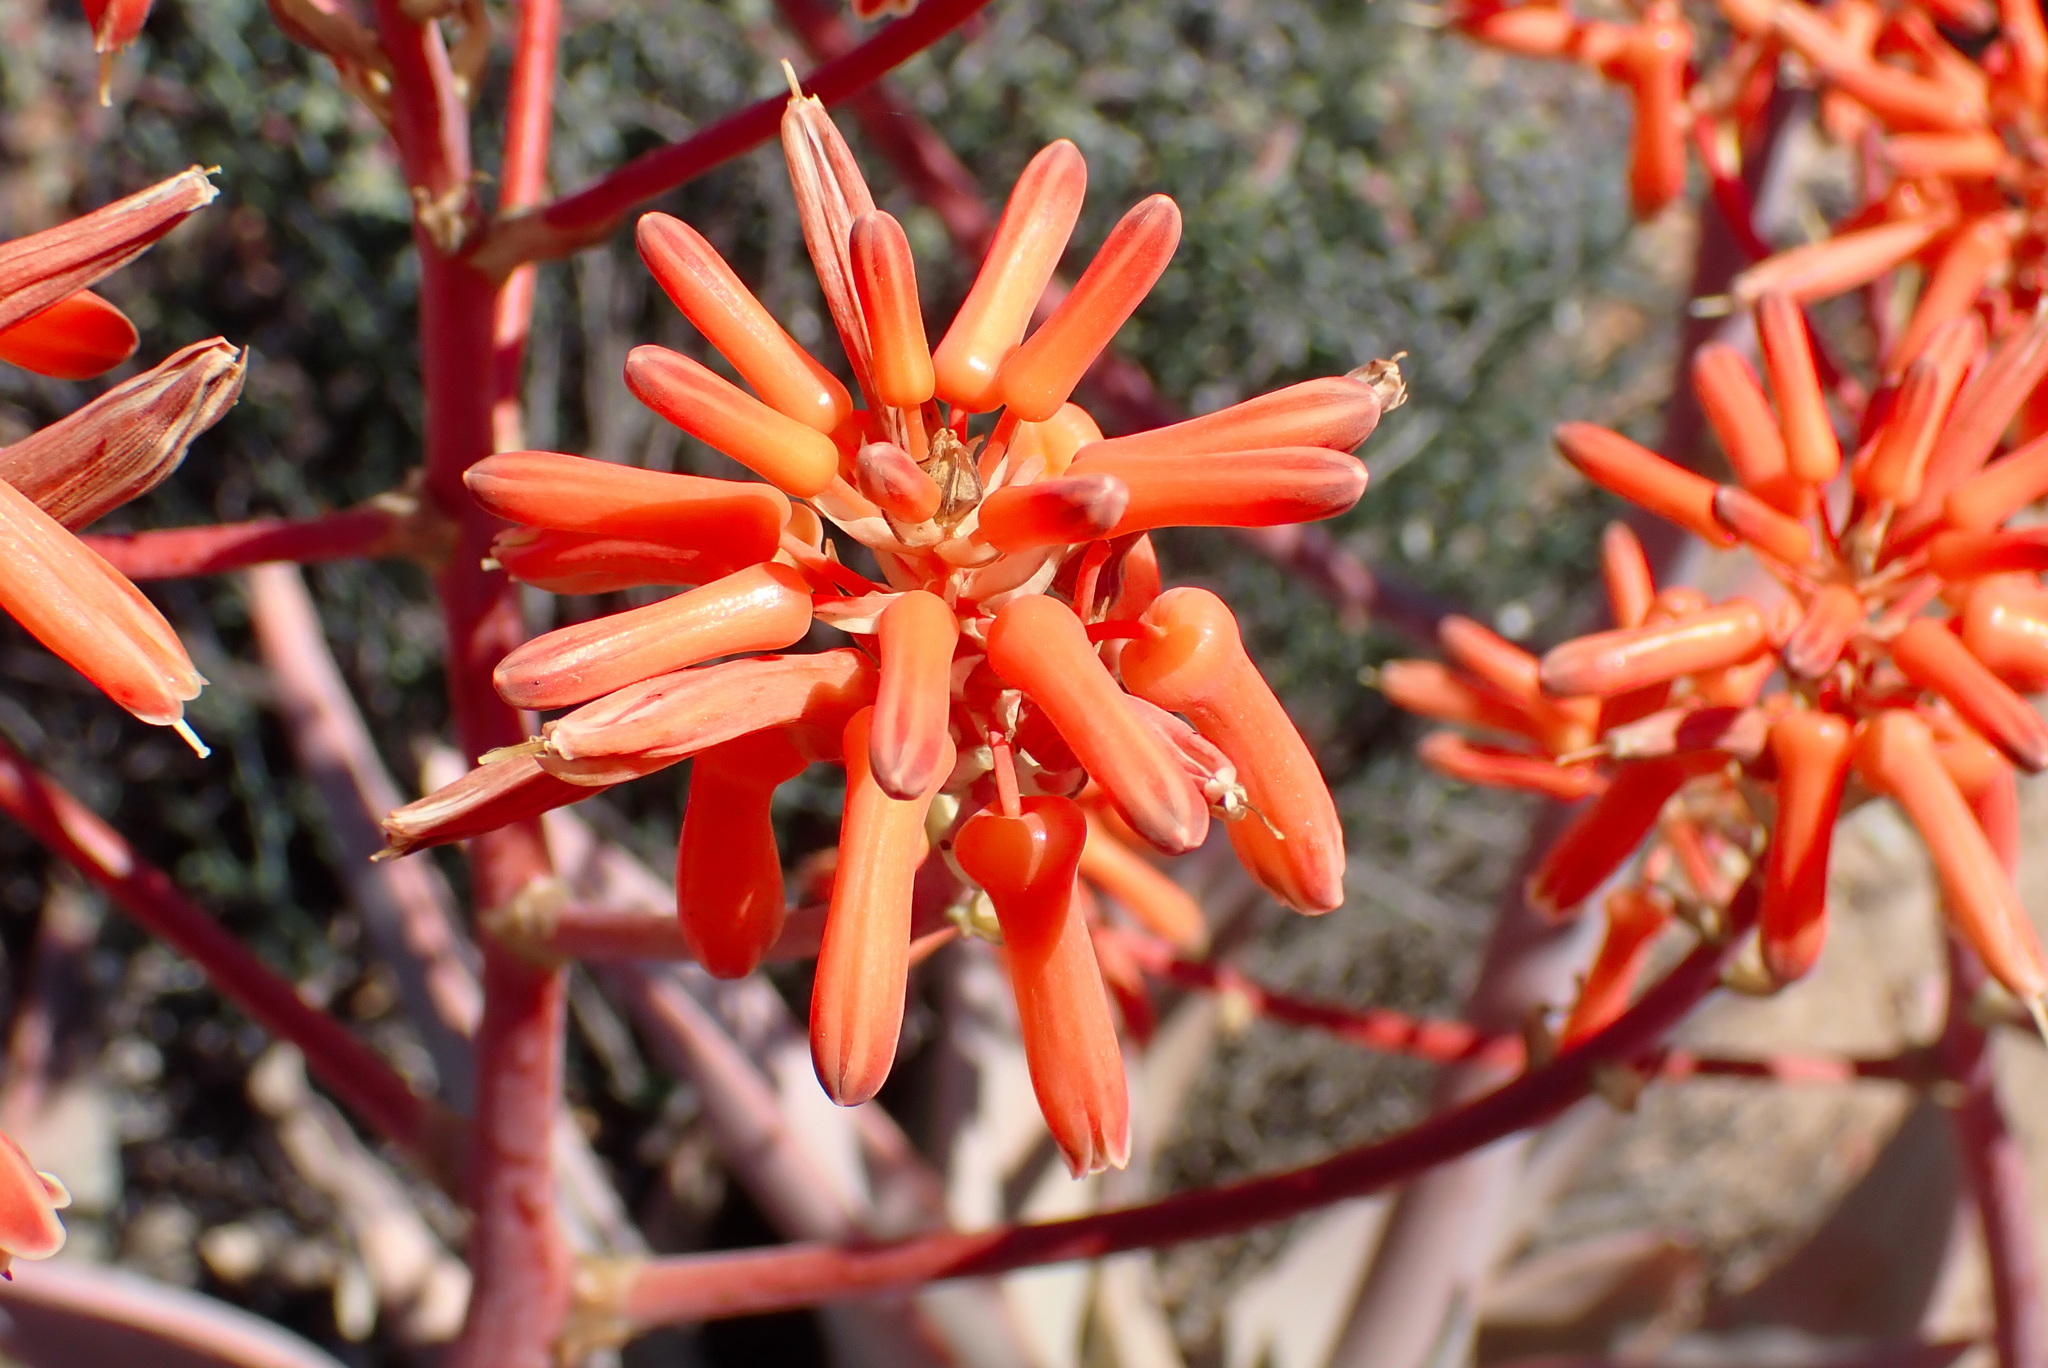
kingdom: Plantae
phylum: Tracheophyta
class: Liliopsida
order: Asparagales
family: Asphodelaceae
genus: Aloe
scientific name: Aloe striata
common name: Coral aloe
